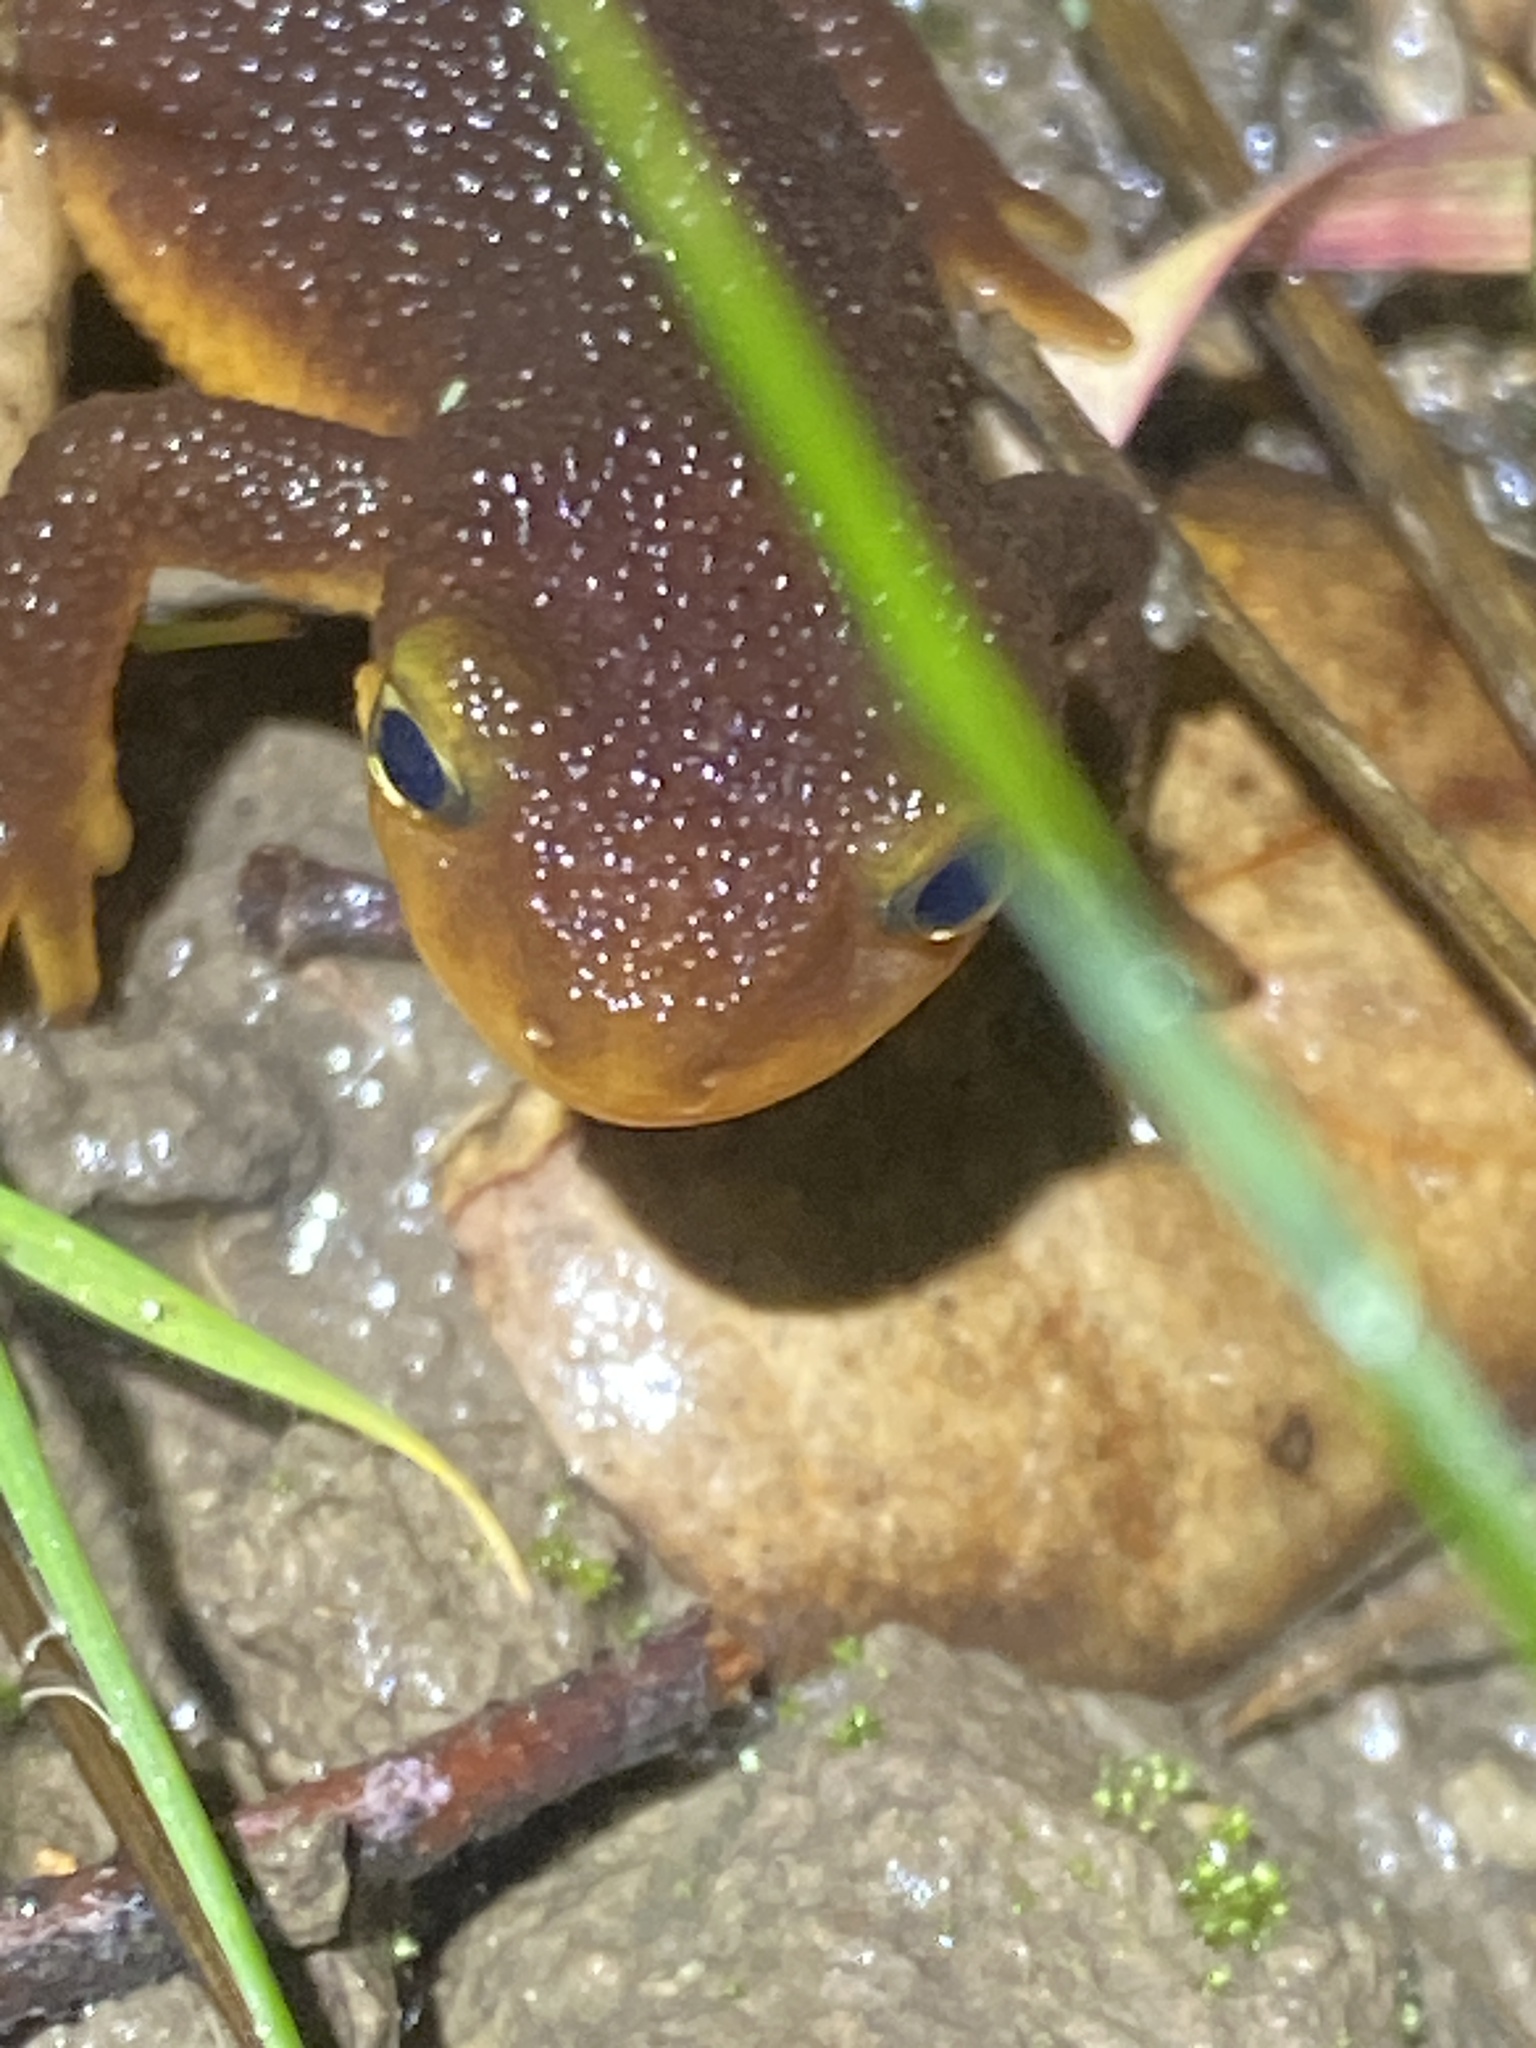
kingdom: Animalia
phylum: Chordata
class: Amphibia
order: Caudata
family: Salamandridae
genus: Taricha
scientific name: Taricha torosa
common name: California newt
